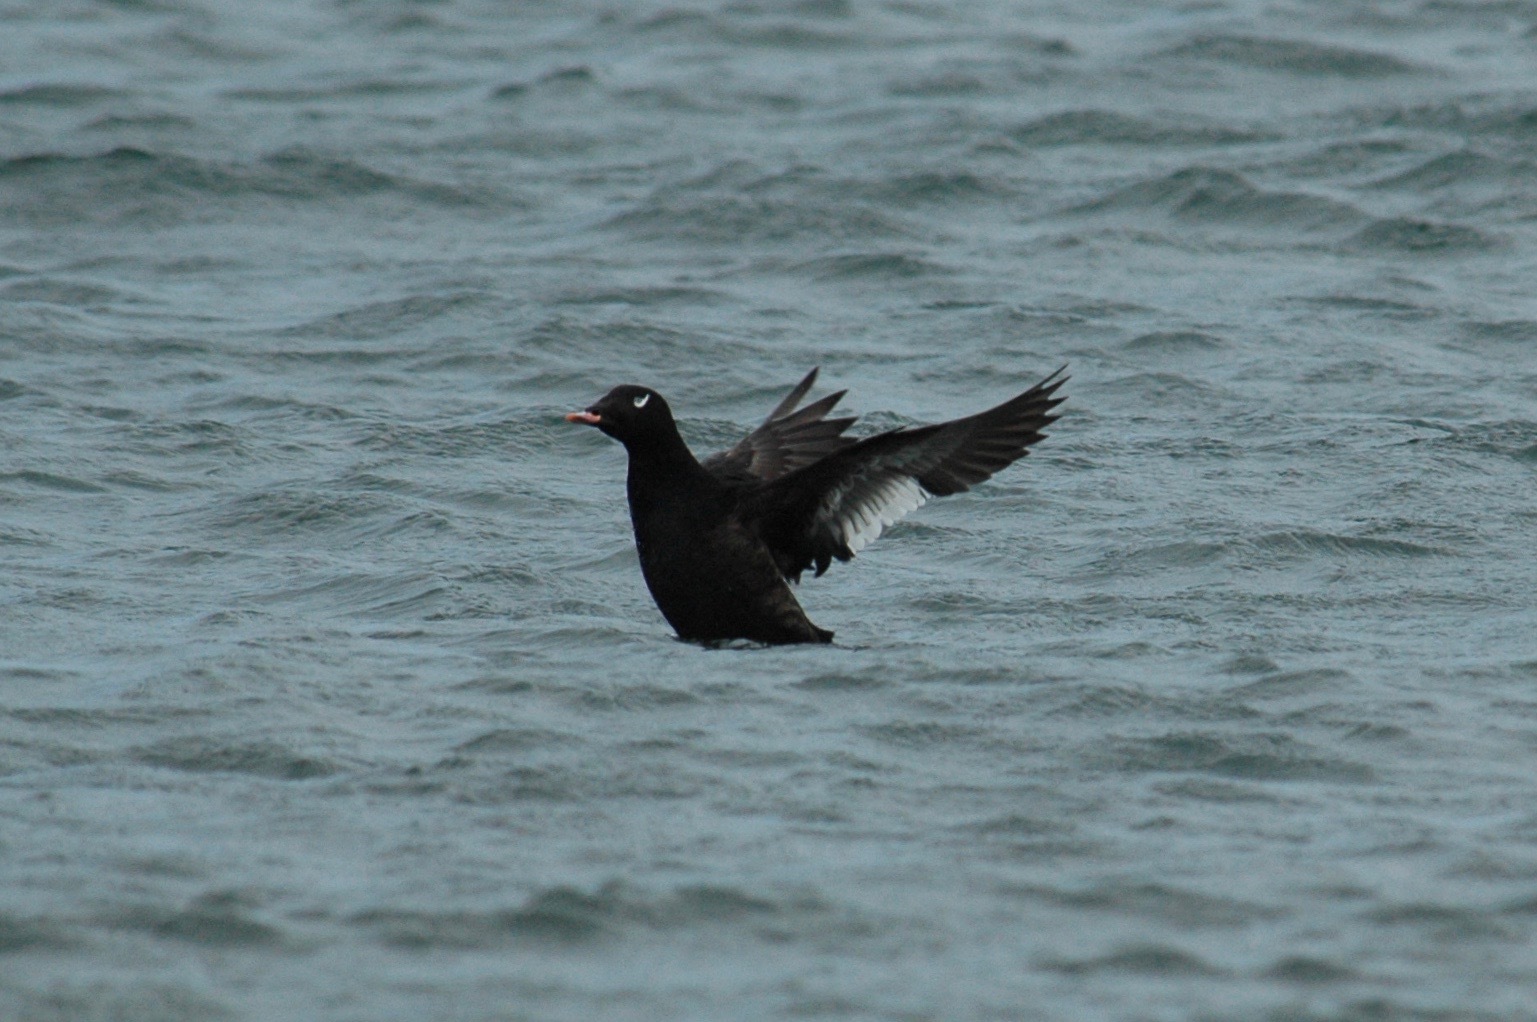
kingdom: Animalia
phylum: Chordata
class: Aves
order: Anseriformes
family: Anatidae
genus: Melanitta
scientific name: Melanitta deglandi
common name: White-winged scoter
